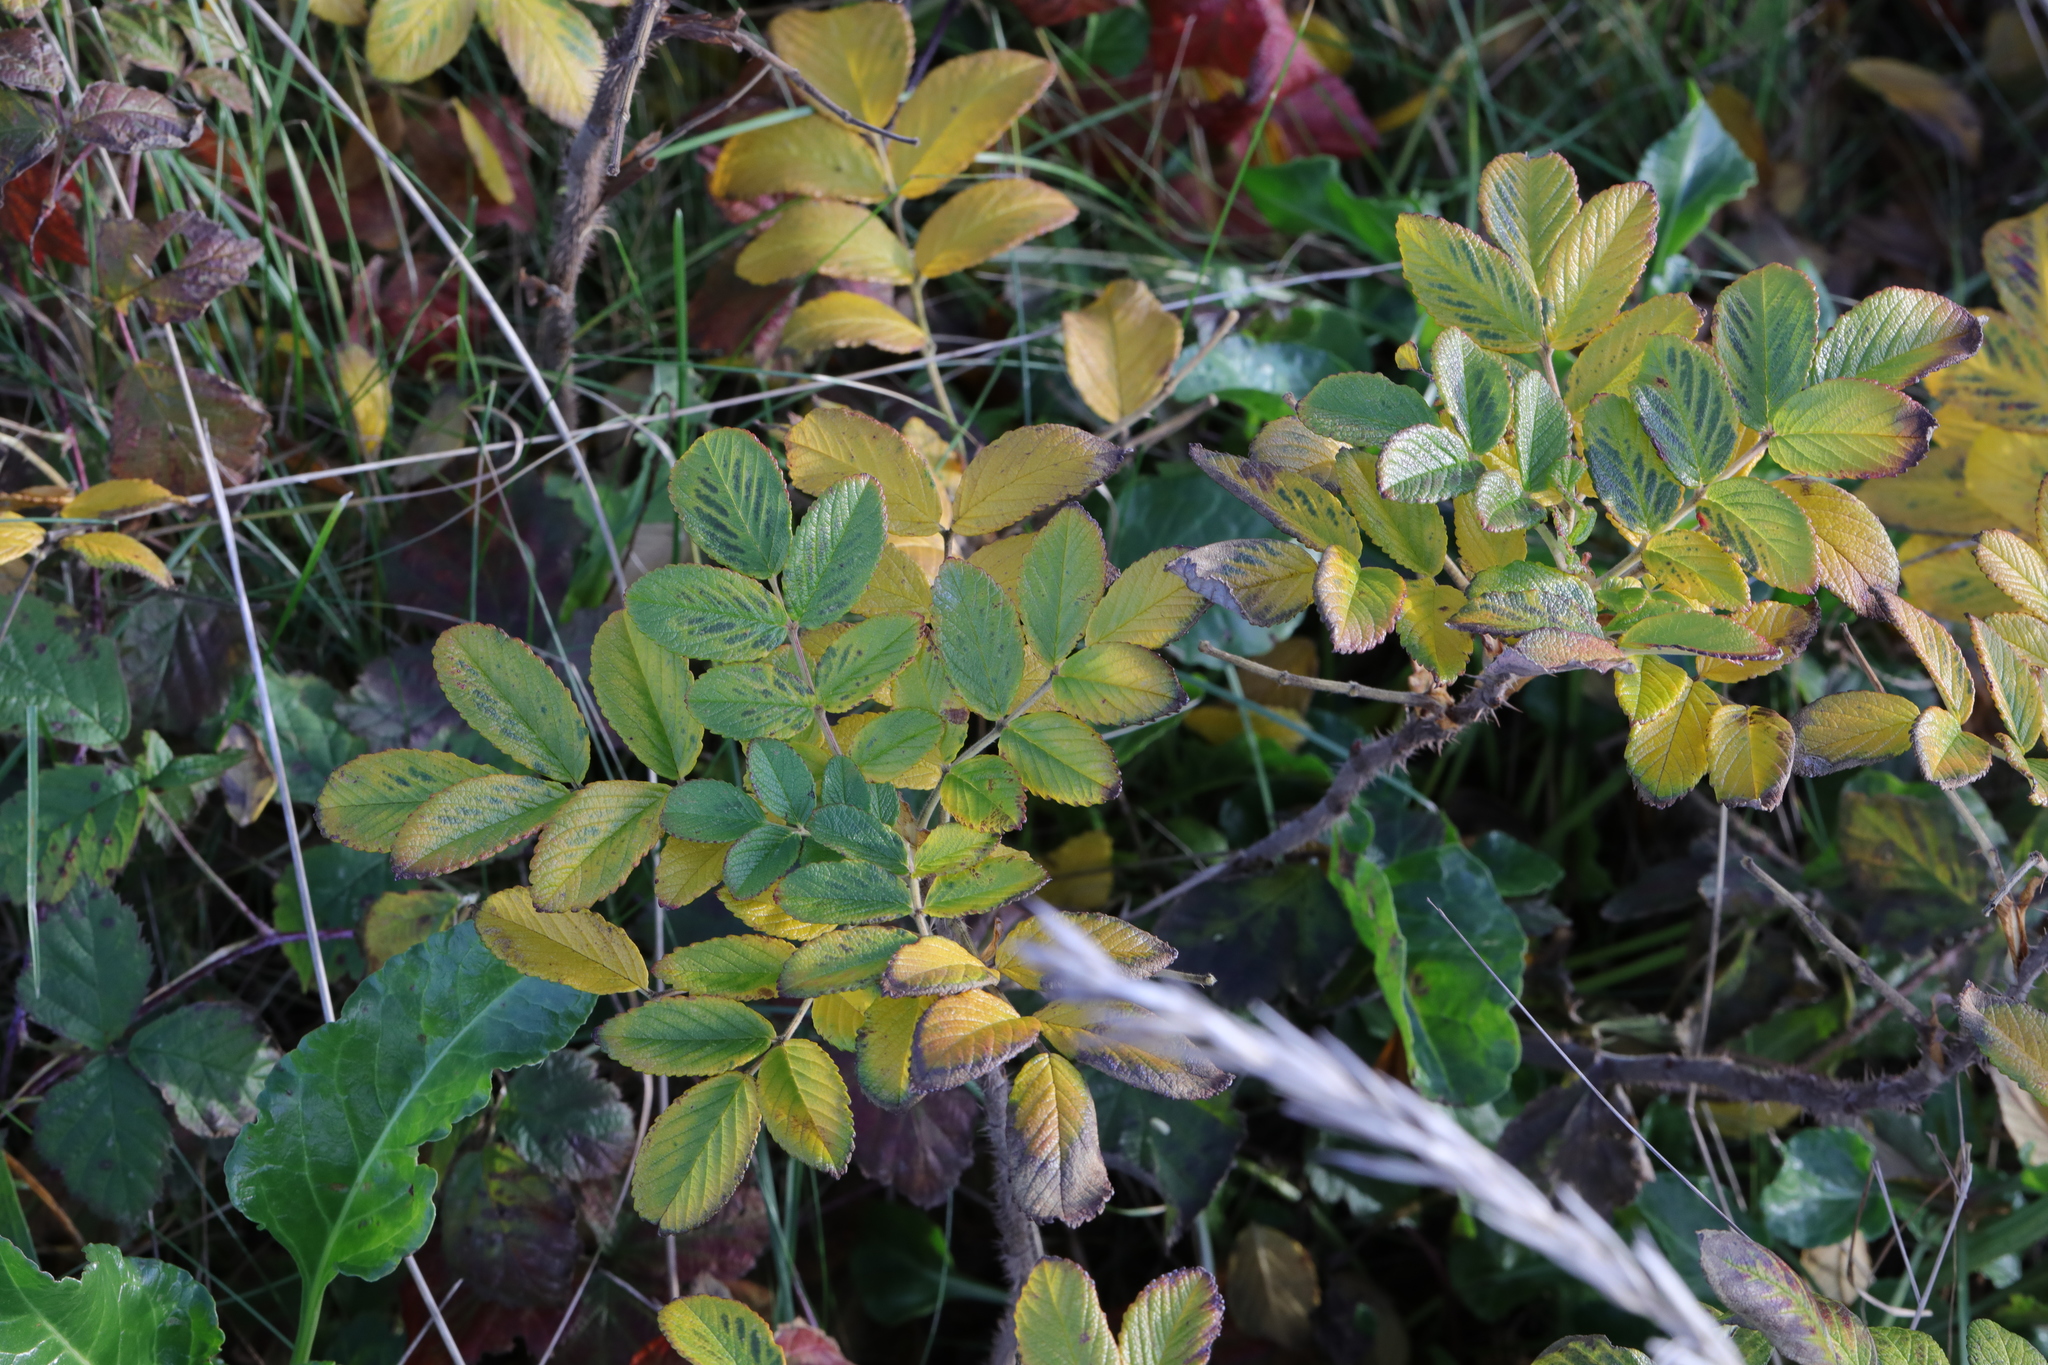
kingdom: Plantae
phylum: Tracheophyta
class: Magnoliopsida
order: Rosales
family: Rosaceae
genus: Rosa
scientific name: Rosa rugosa
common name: Japanese rose
